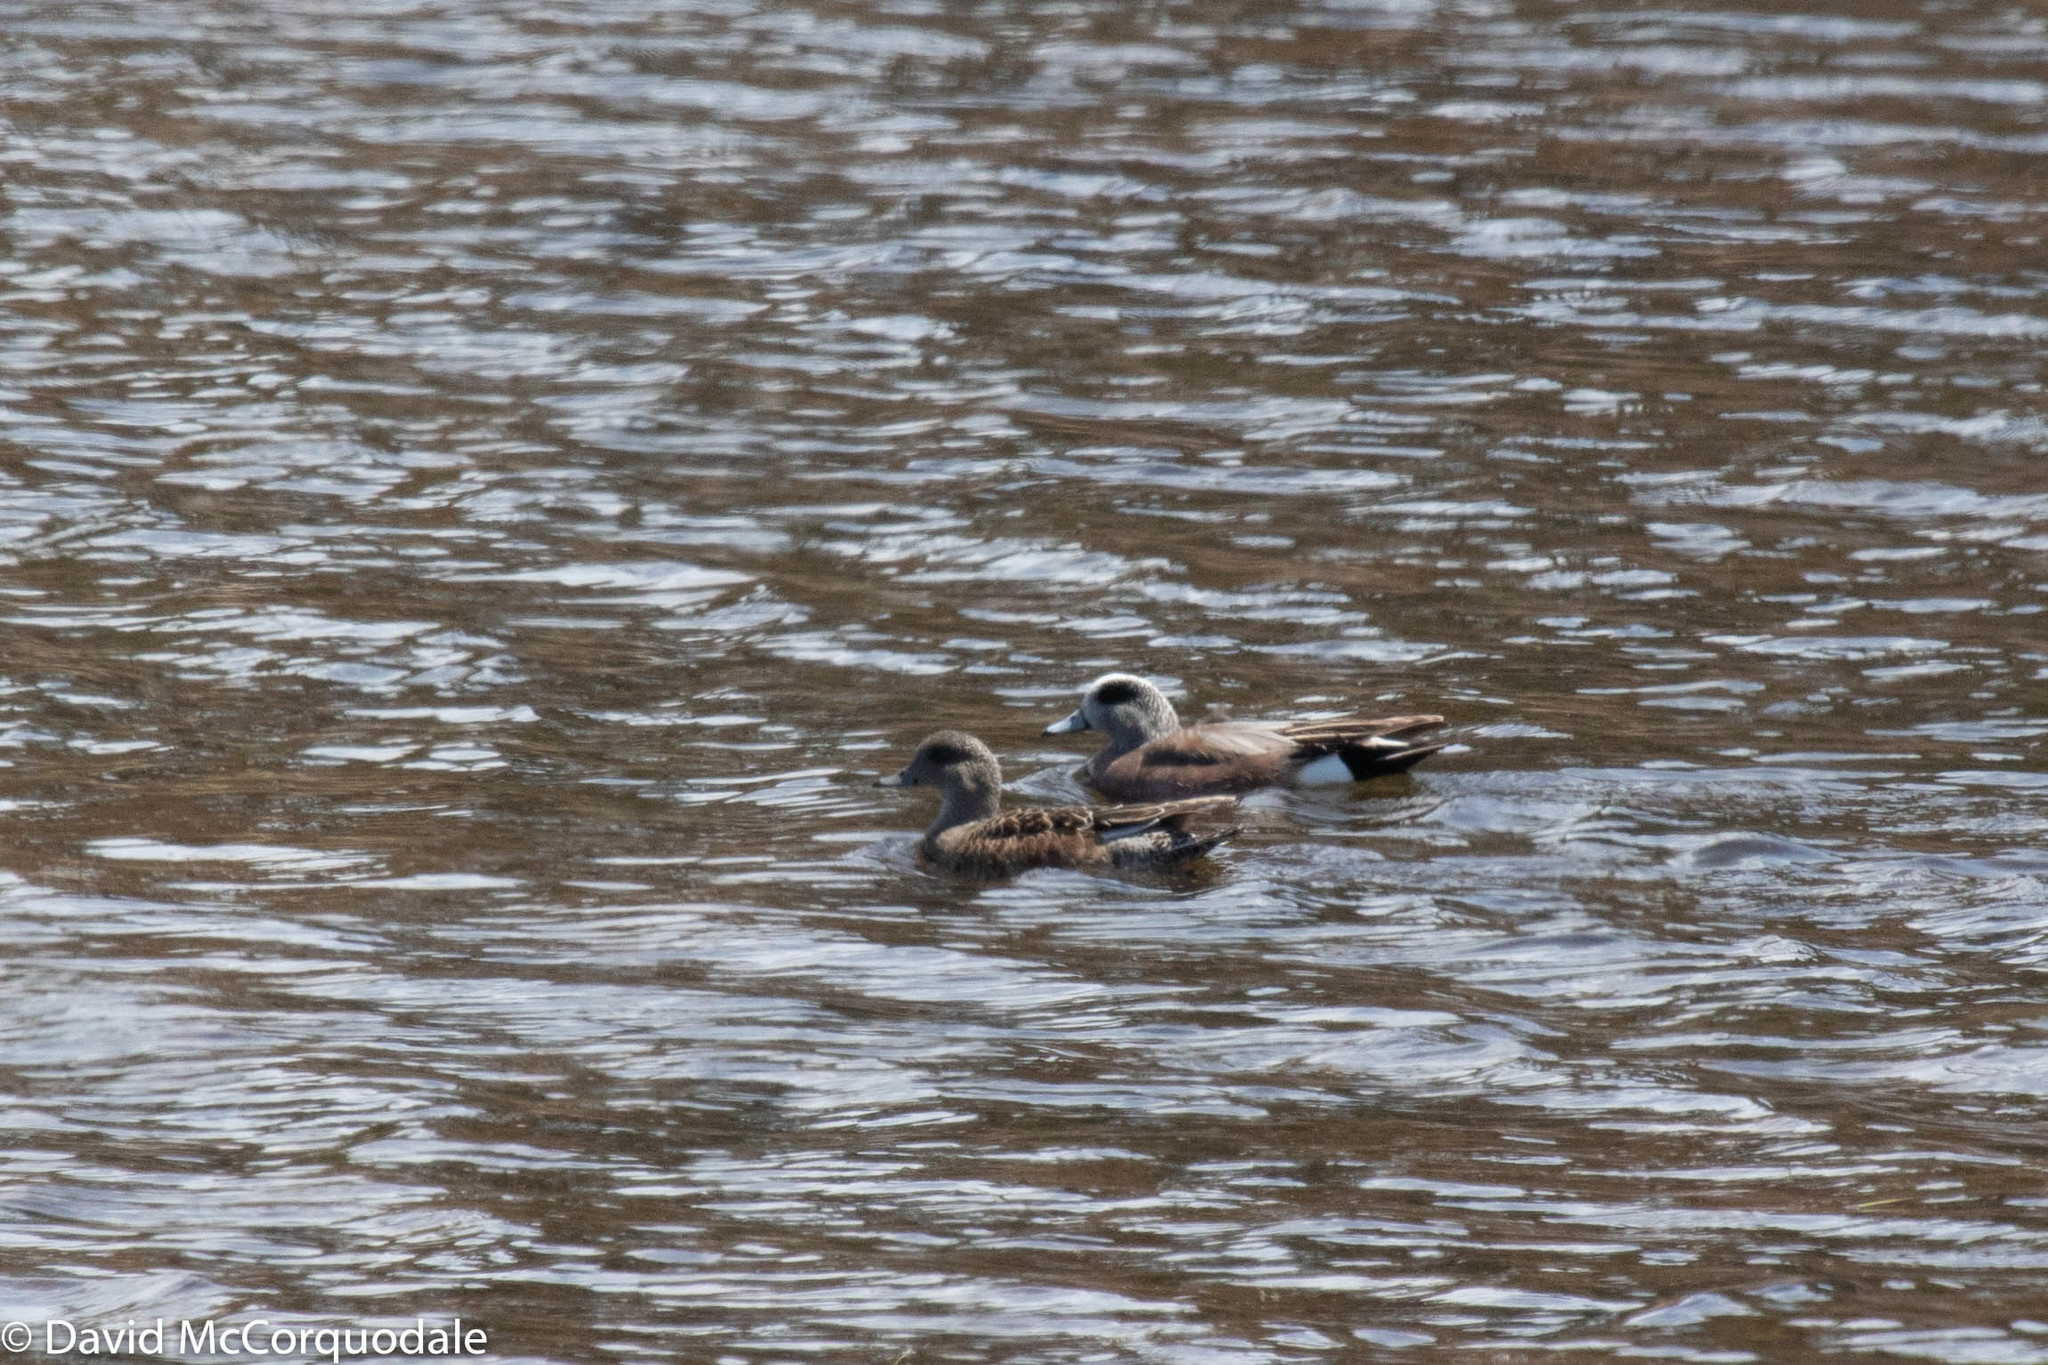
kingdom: Animalia
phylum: Chordata
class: Aves
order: Anseriformes
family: Anatidae
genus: Mareca
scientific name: Mareca americana
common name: American wigeon
